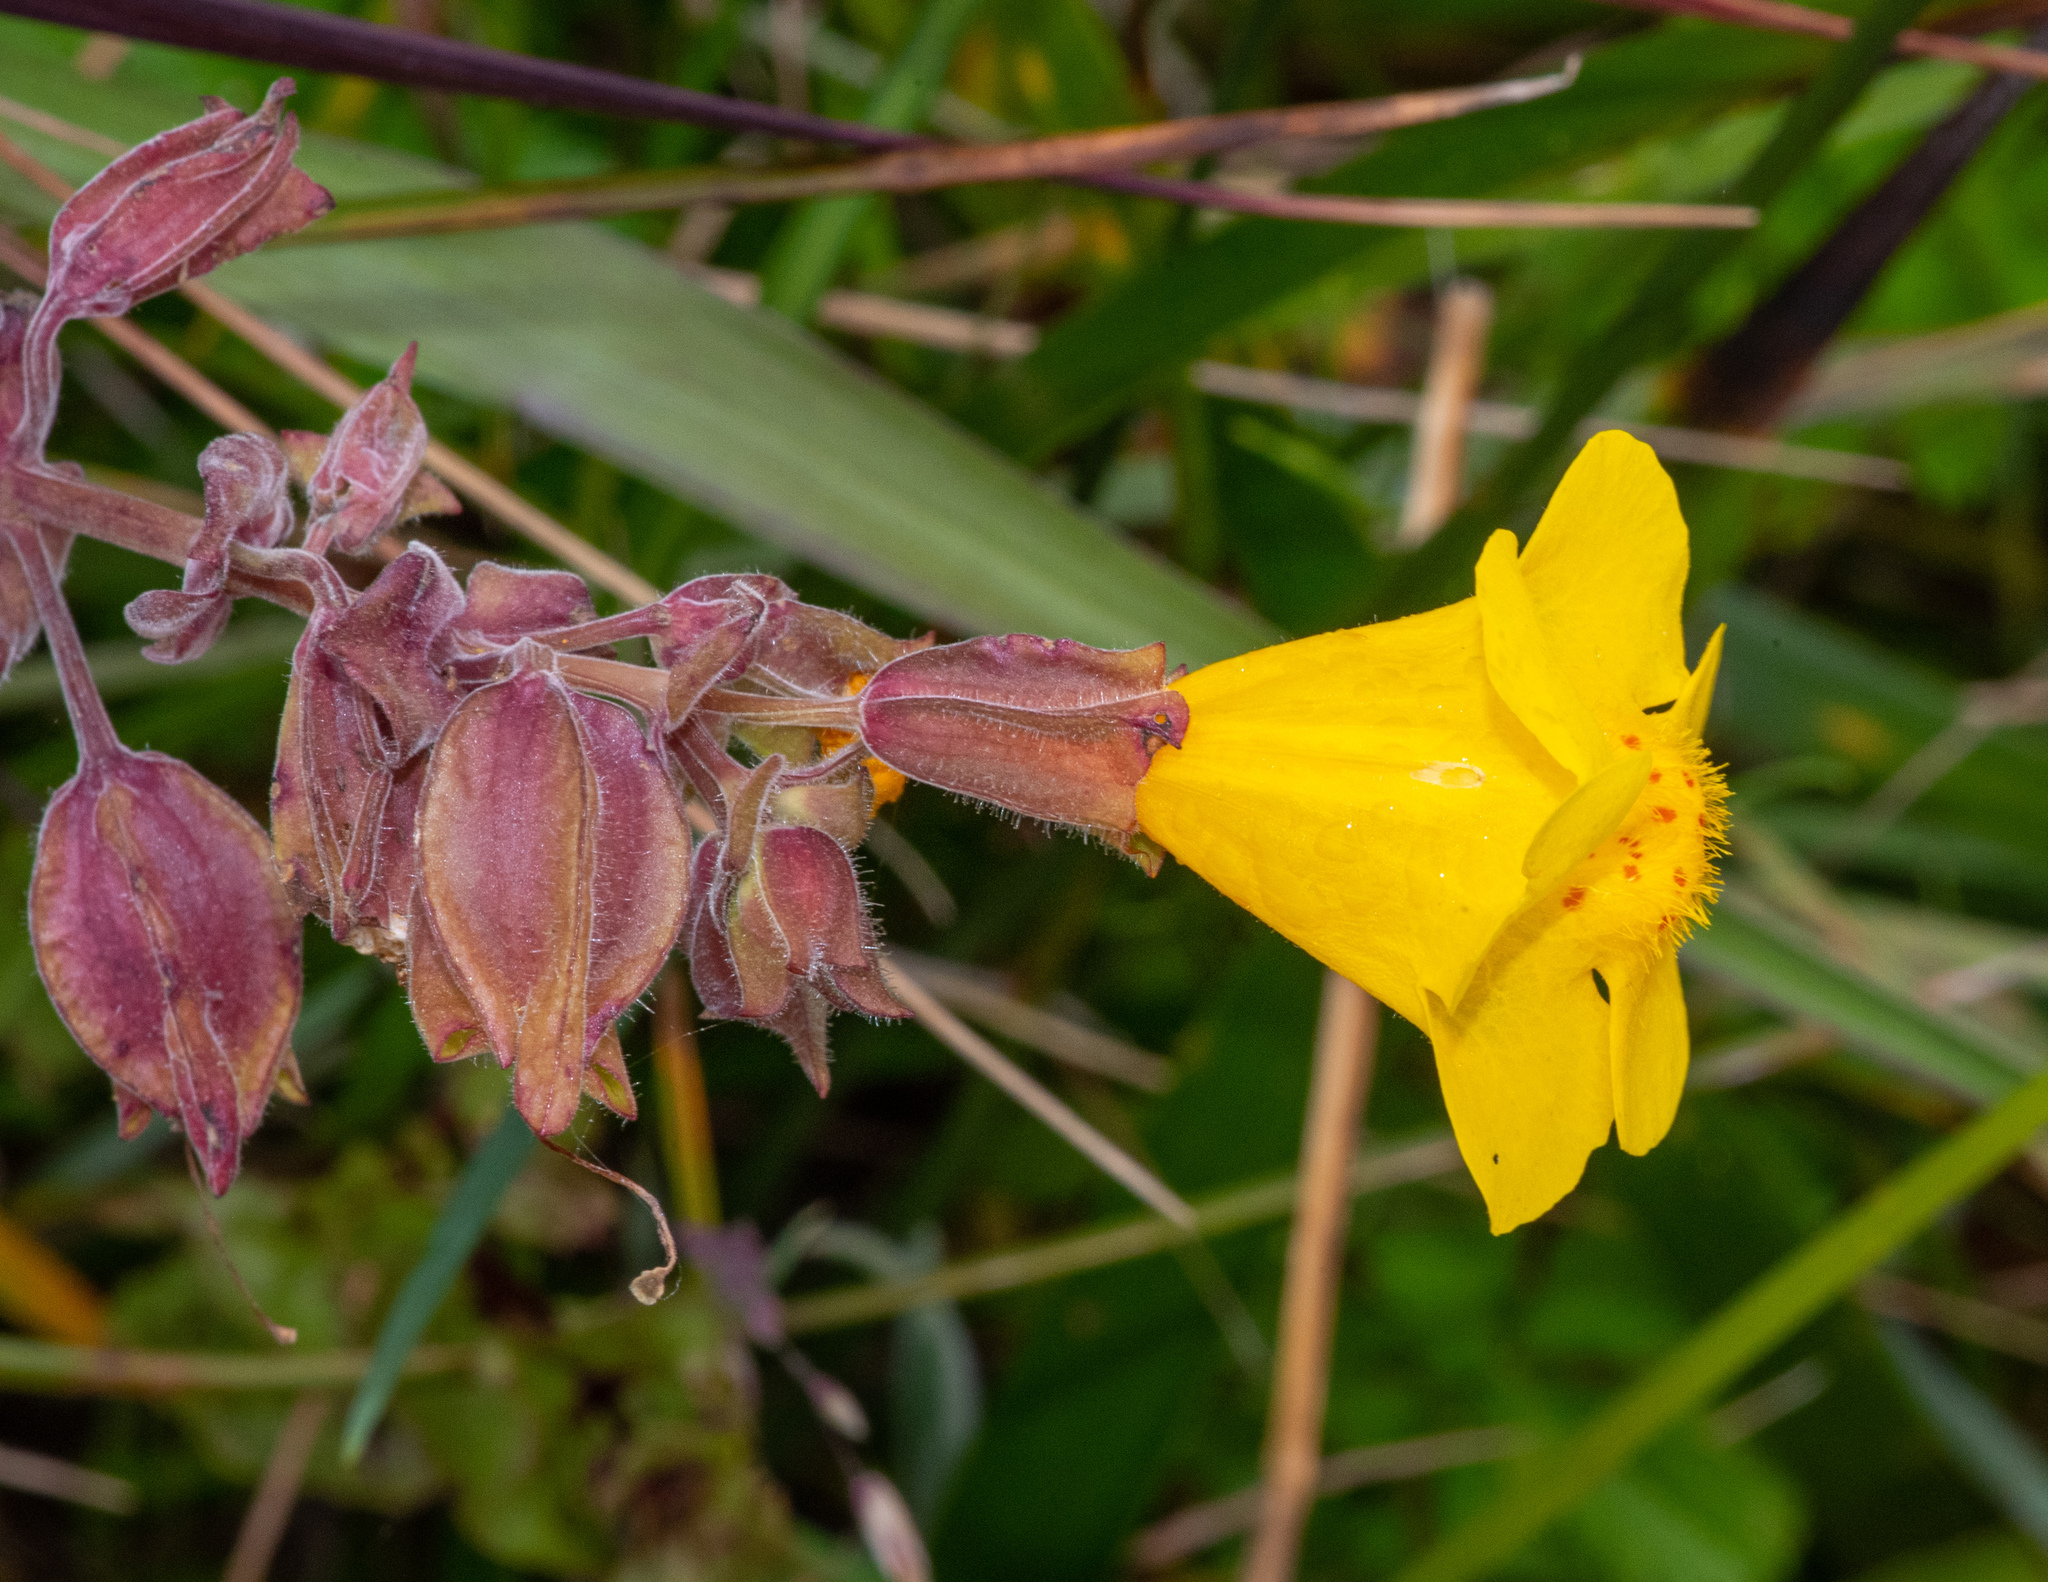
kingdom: Plantae
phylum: Tracheophyta
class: Magnoliopsida
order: Lamiales
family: Phrymaceae
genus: Erythranthe
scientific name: Erythranthe grandis
